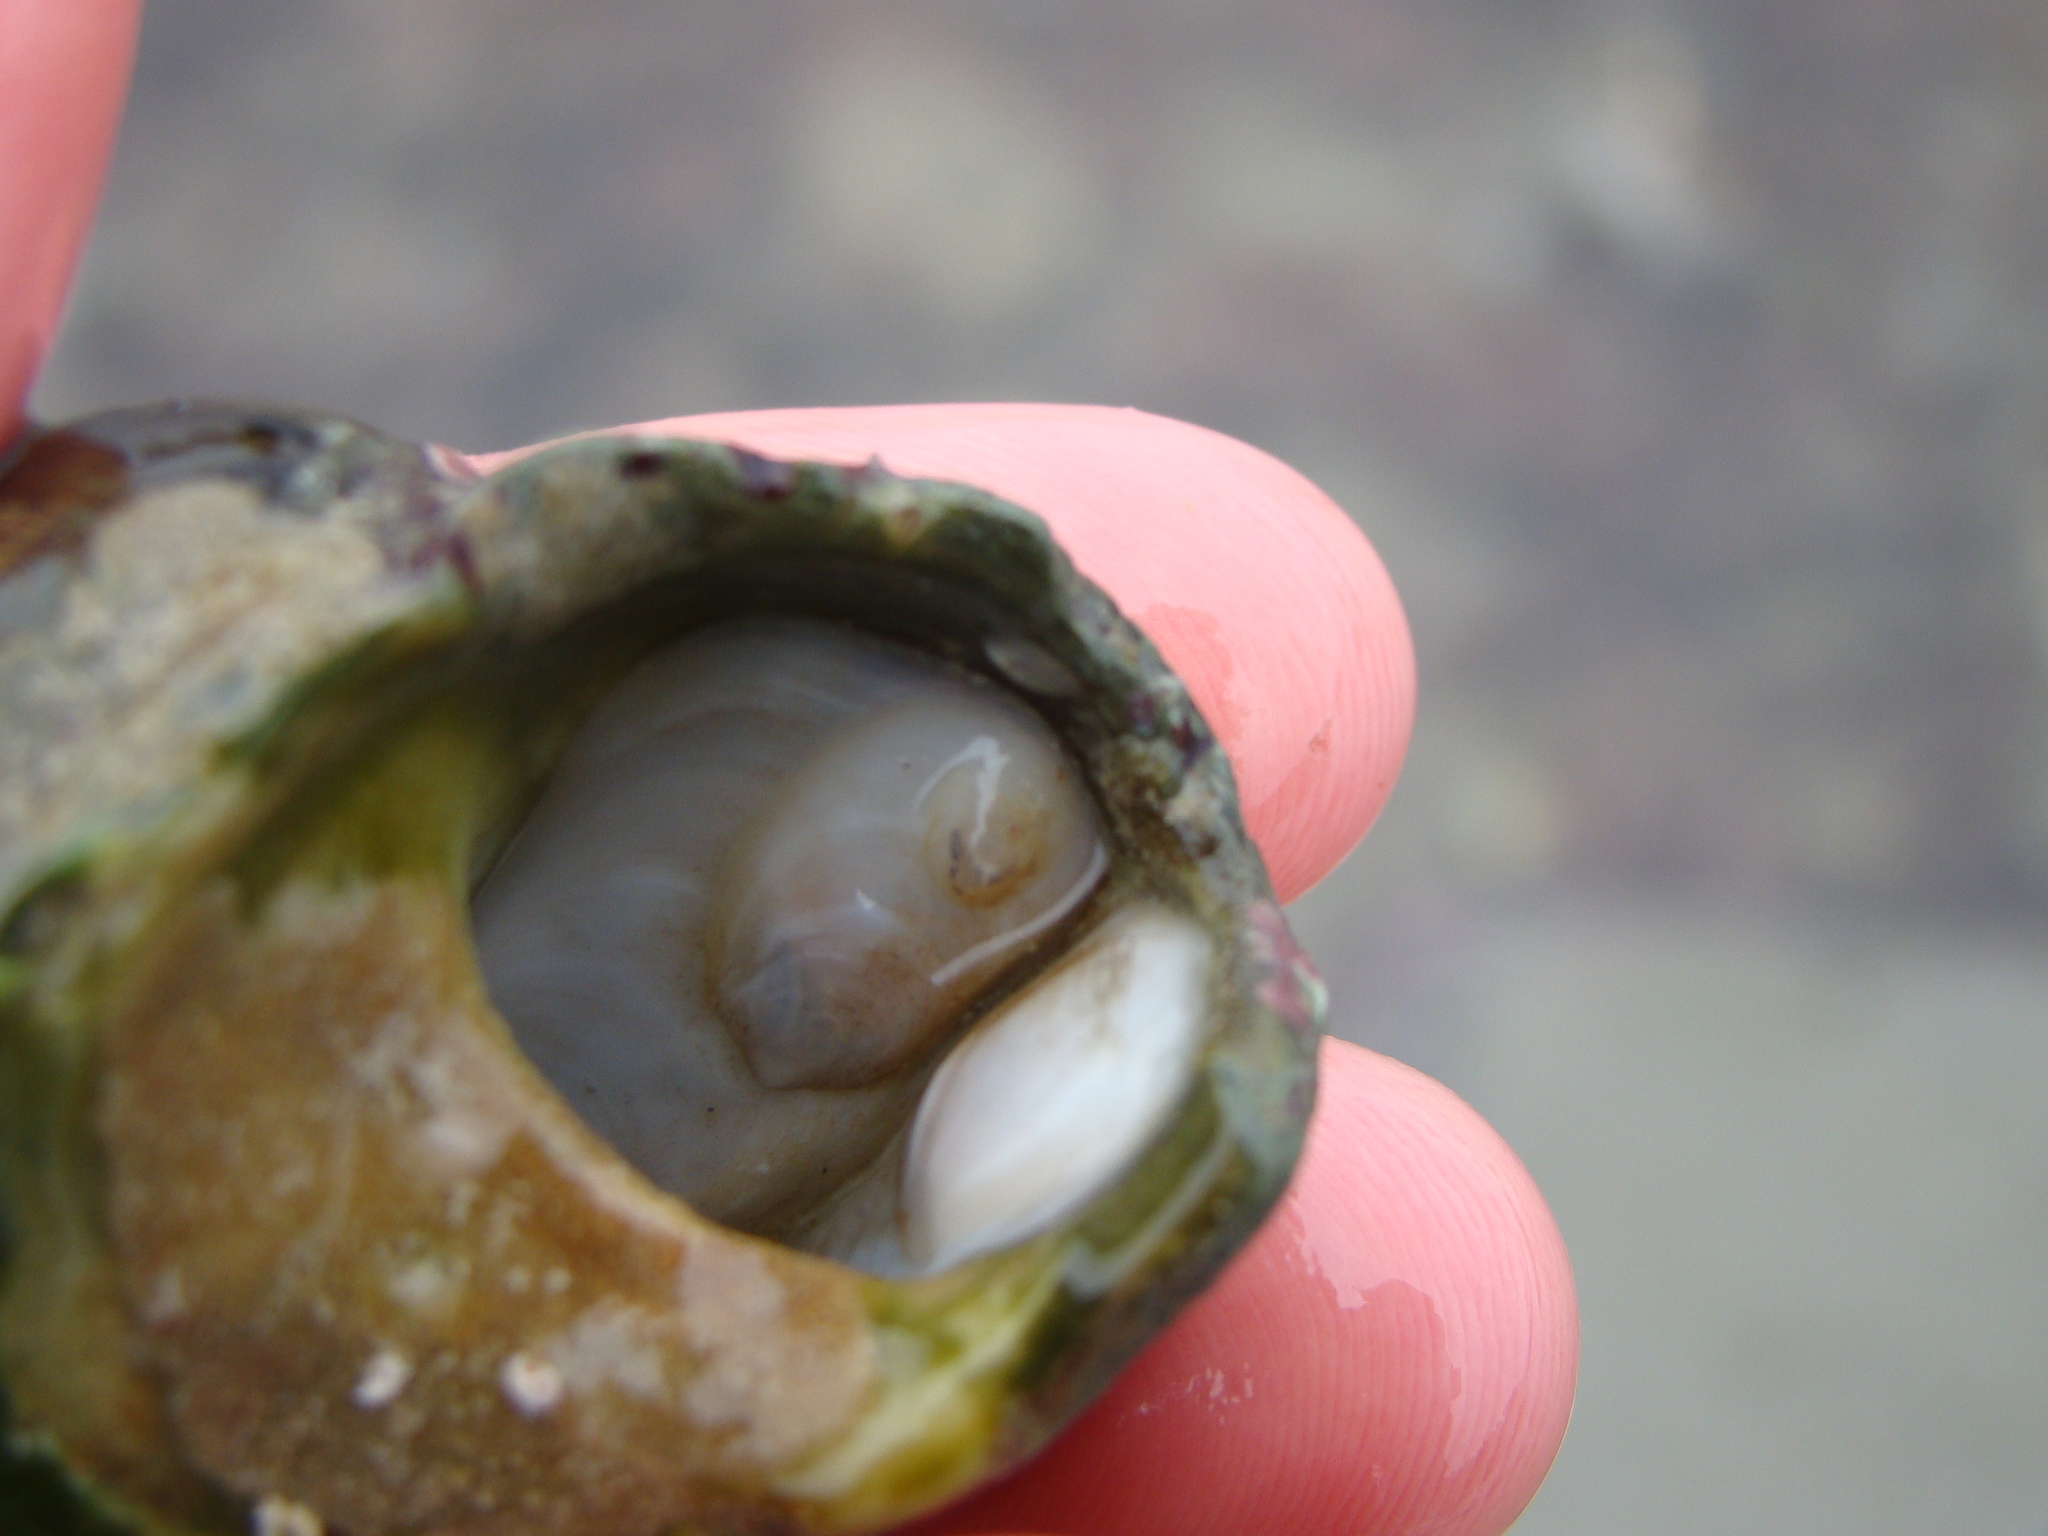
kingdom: Animalia
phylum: Mollusca
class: Gastropoda
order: Littorinimorpha
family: Calyptraeidae
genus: Maoricrypta
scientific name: Maoricrypta sodalis
